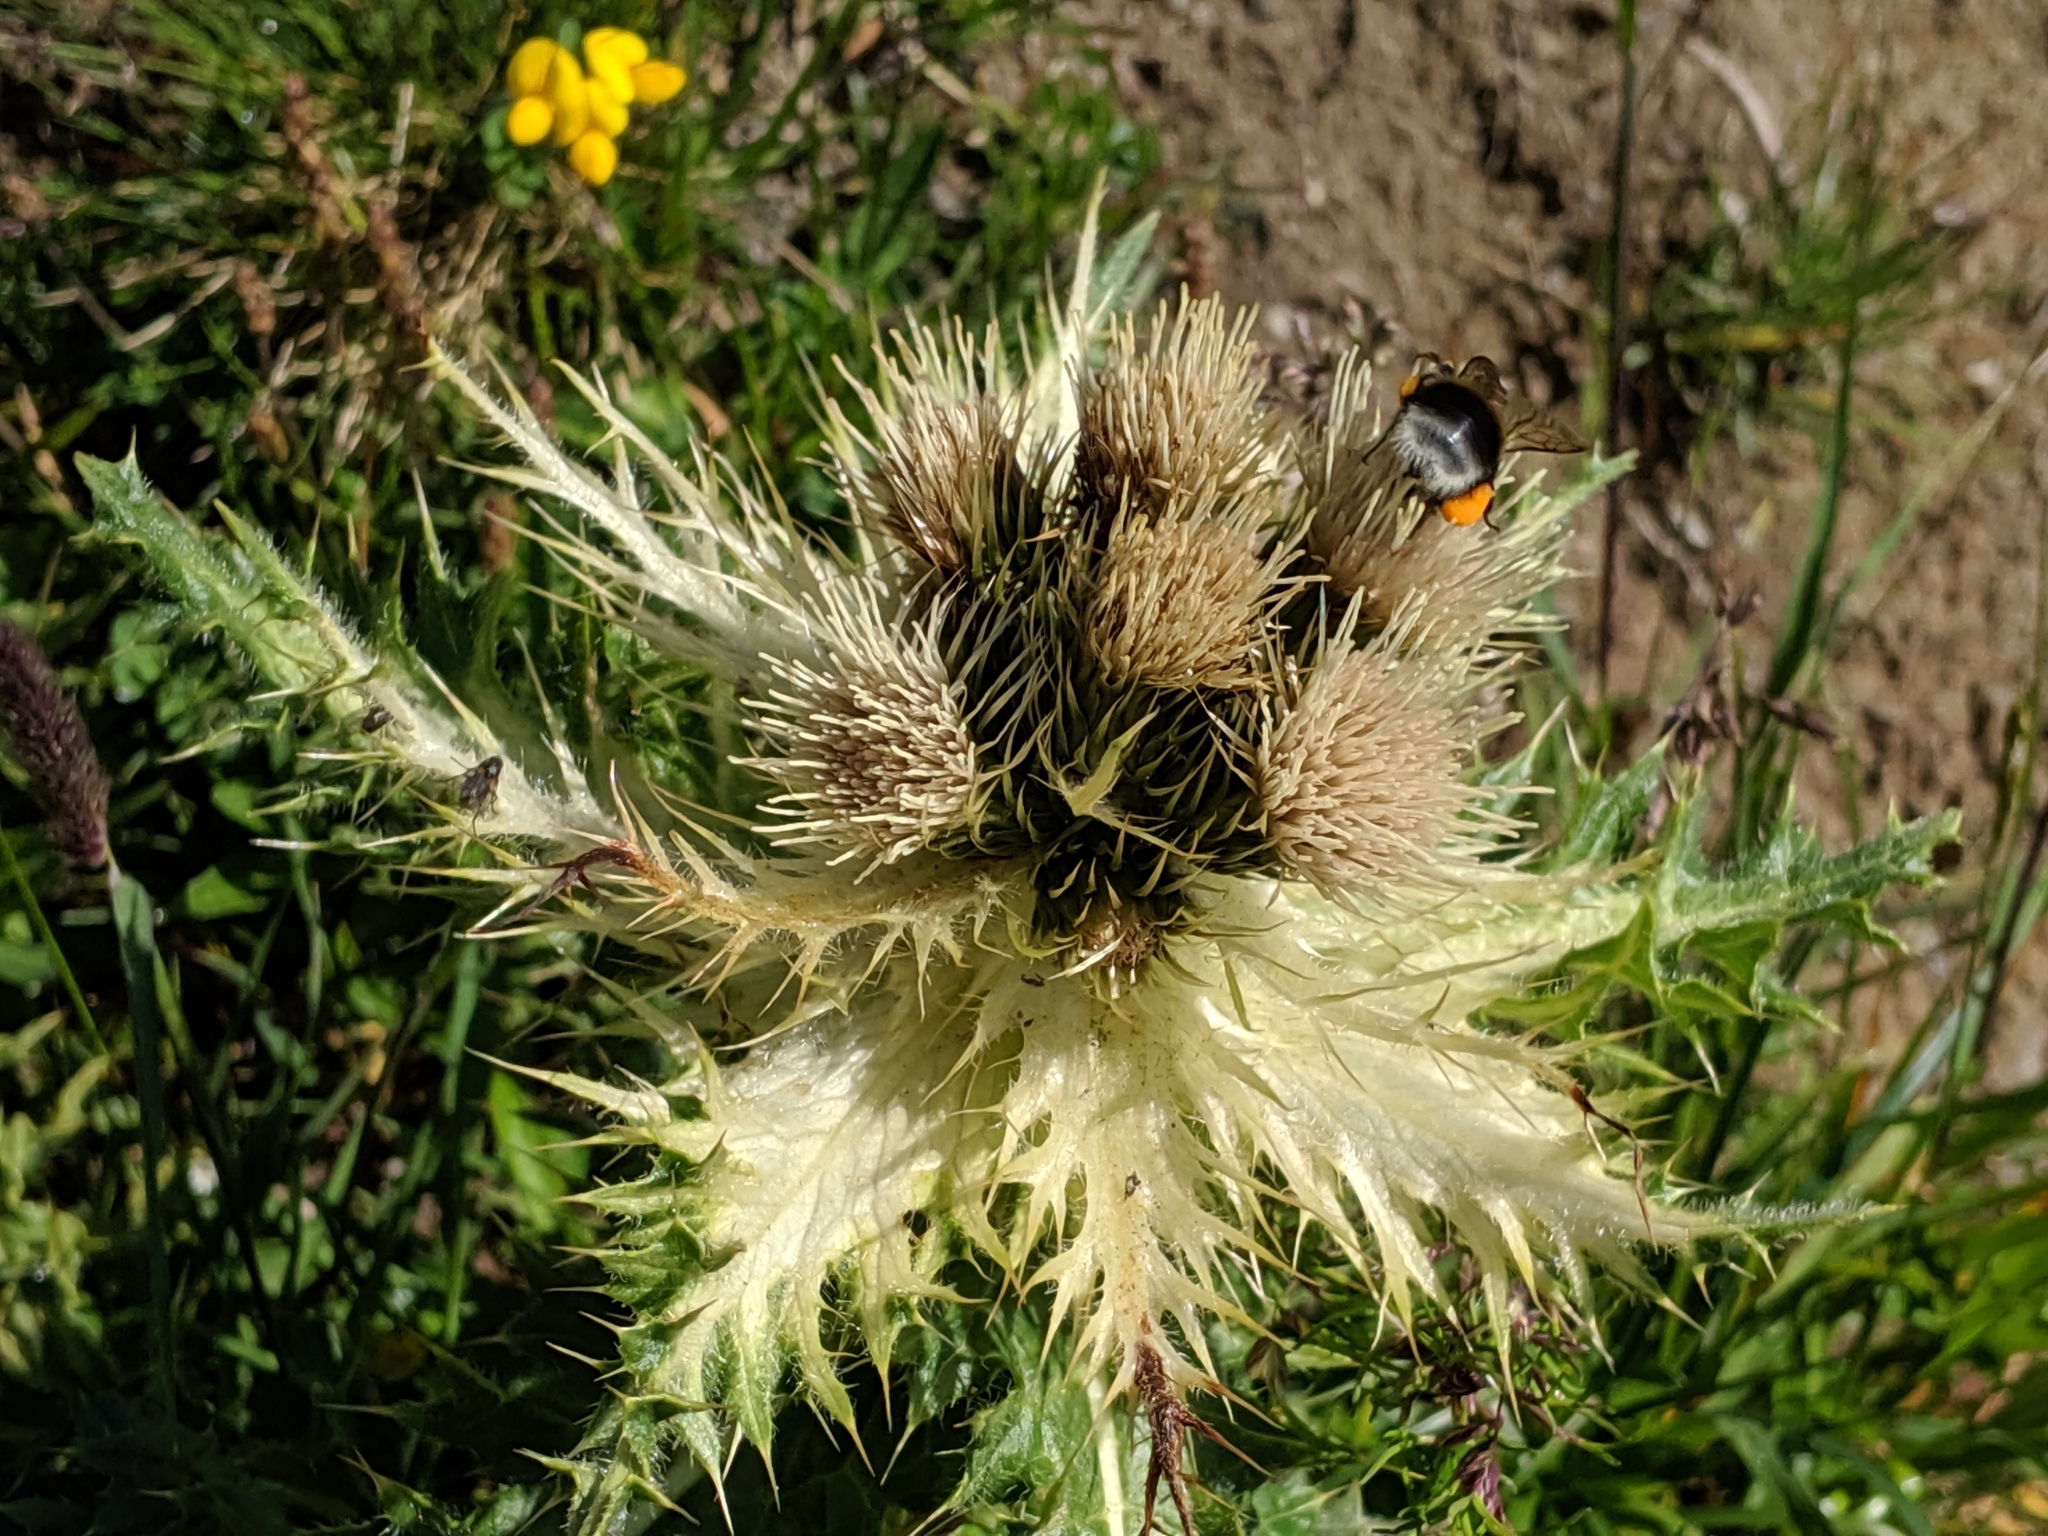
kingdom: Plantae
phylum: Tracheophyta
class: Magnoliopsida
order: Asterales
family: Asteraceae
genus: Cirsium
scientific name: Cirsium spinosissimum
